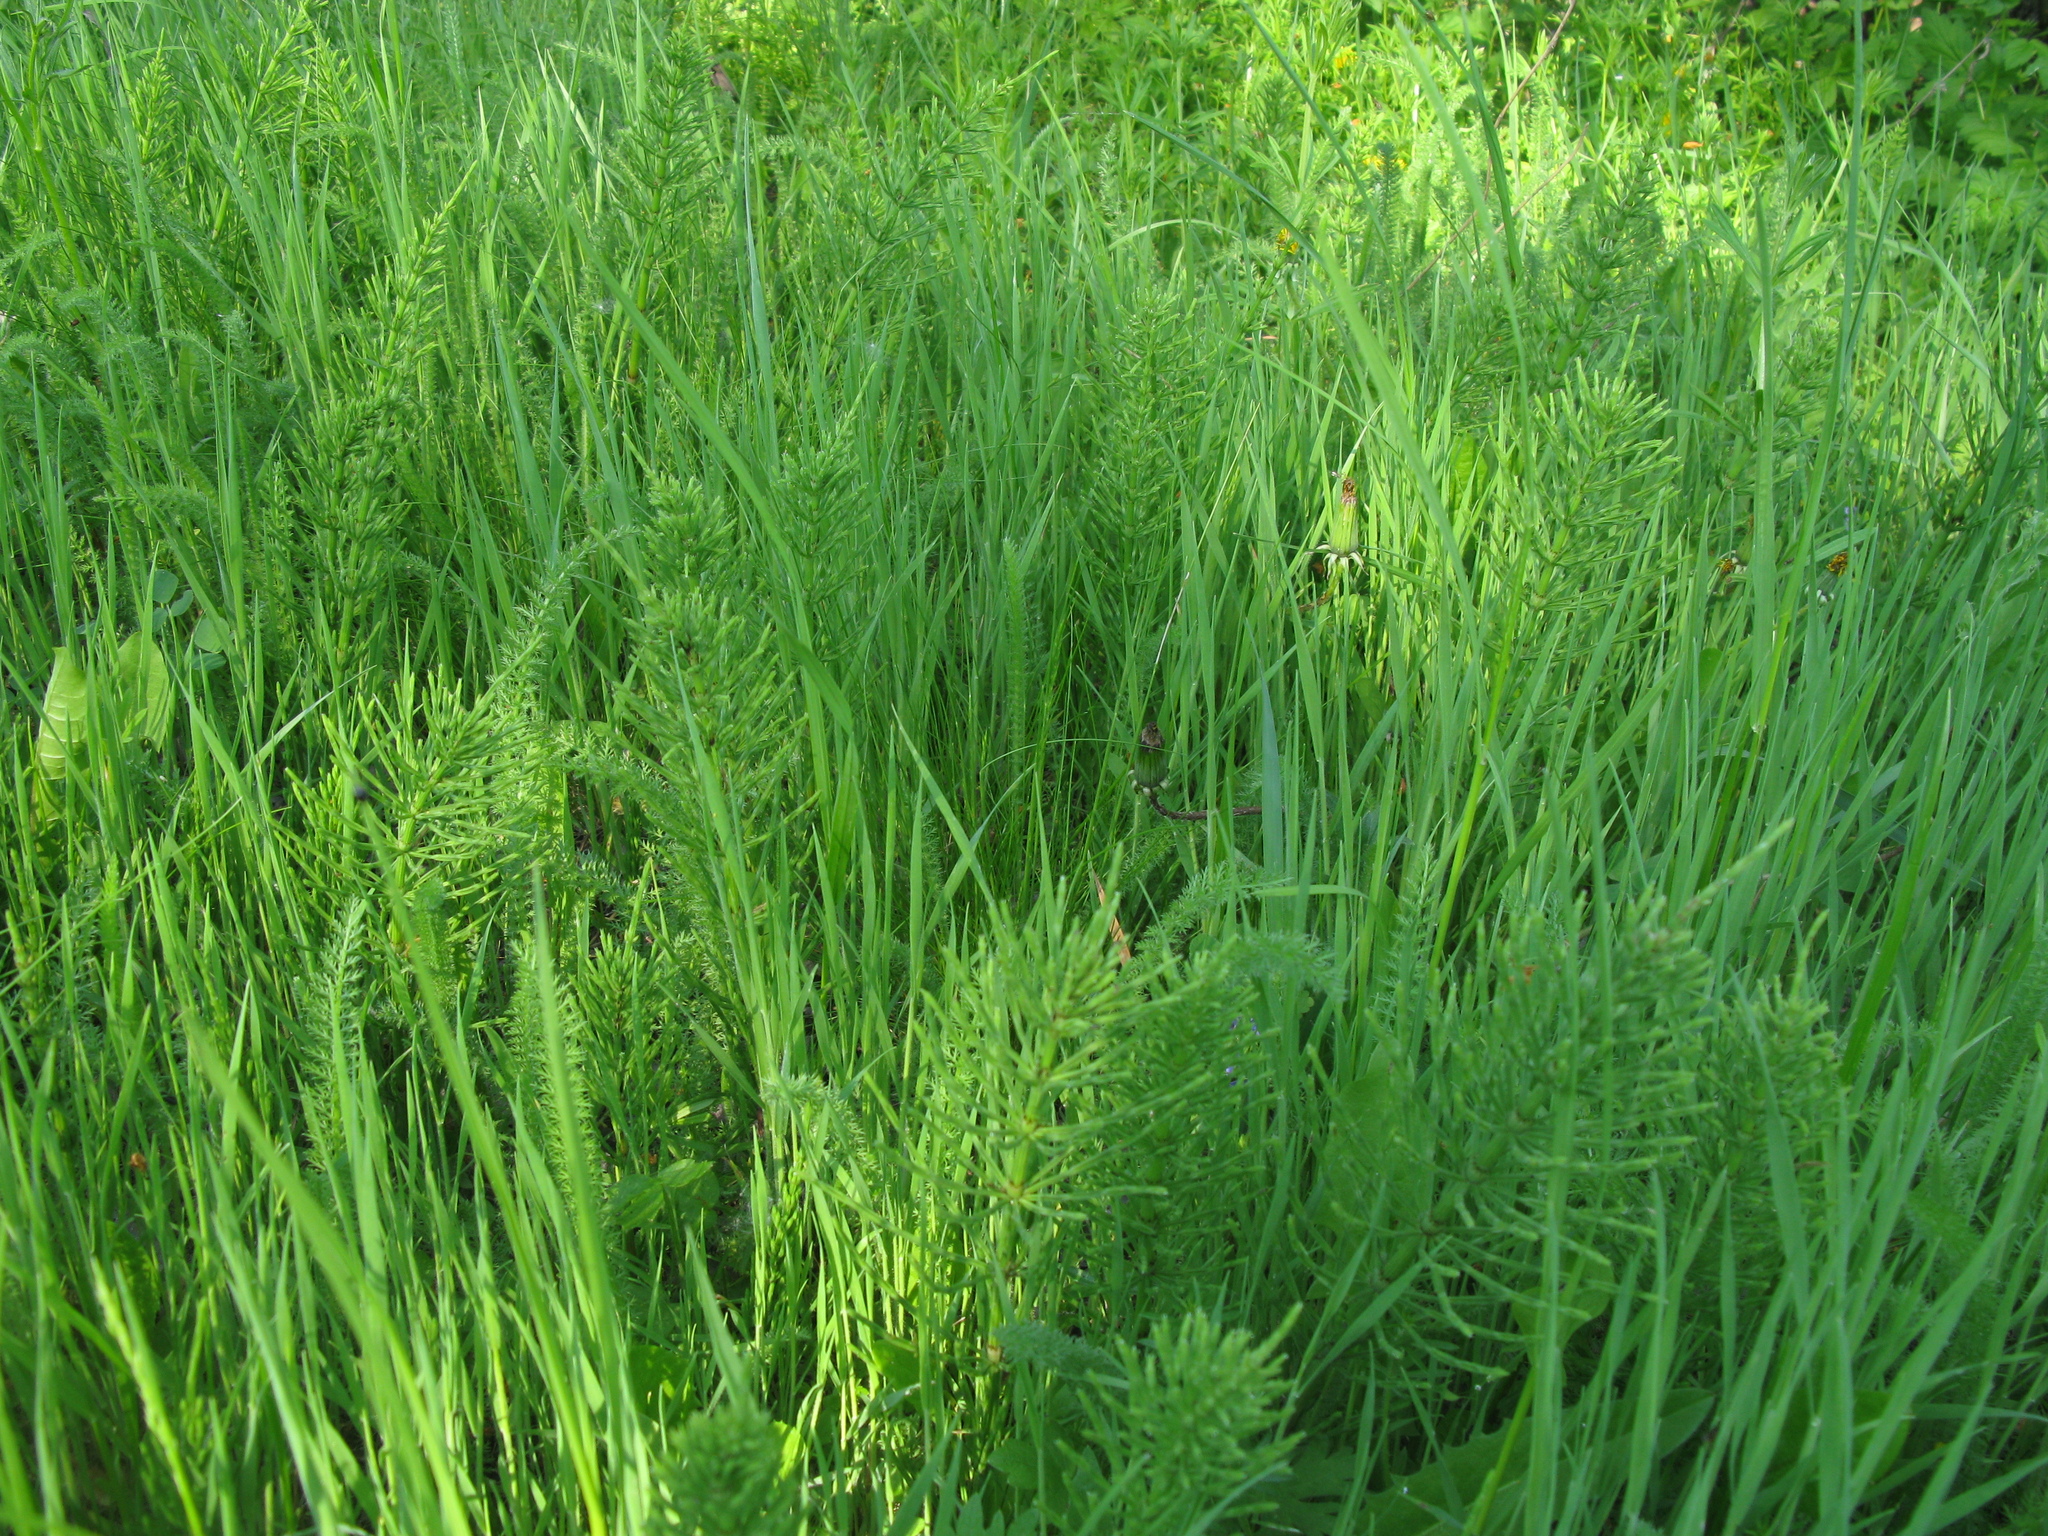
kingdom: Plantae
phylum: Tracheophyta
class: Polypodiopsida
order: Equisetales
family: Equisetaceae
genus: Equisetum
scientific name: Equisetum arvense
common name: Field horsetail
